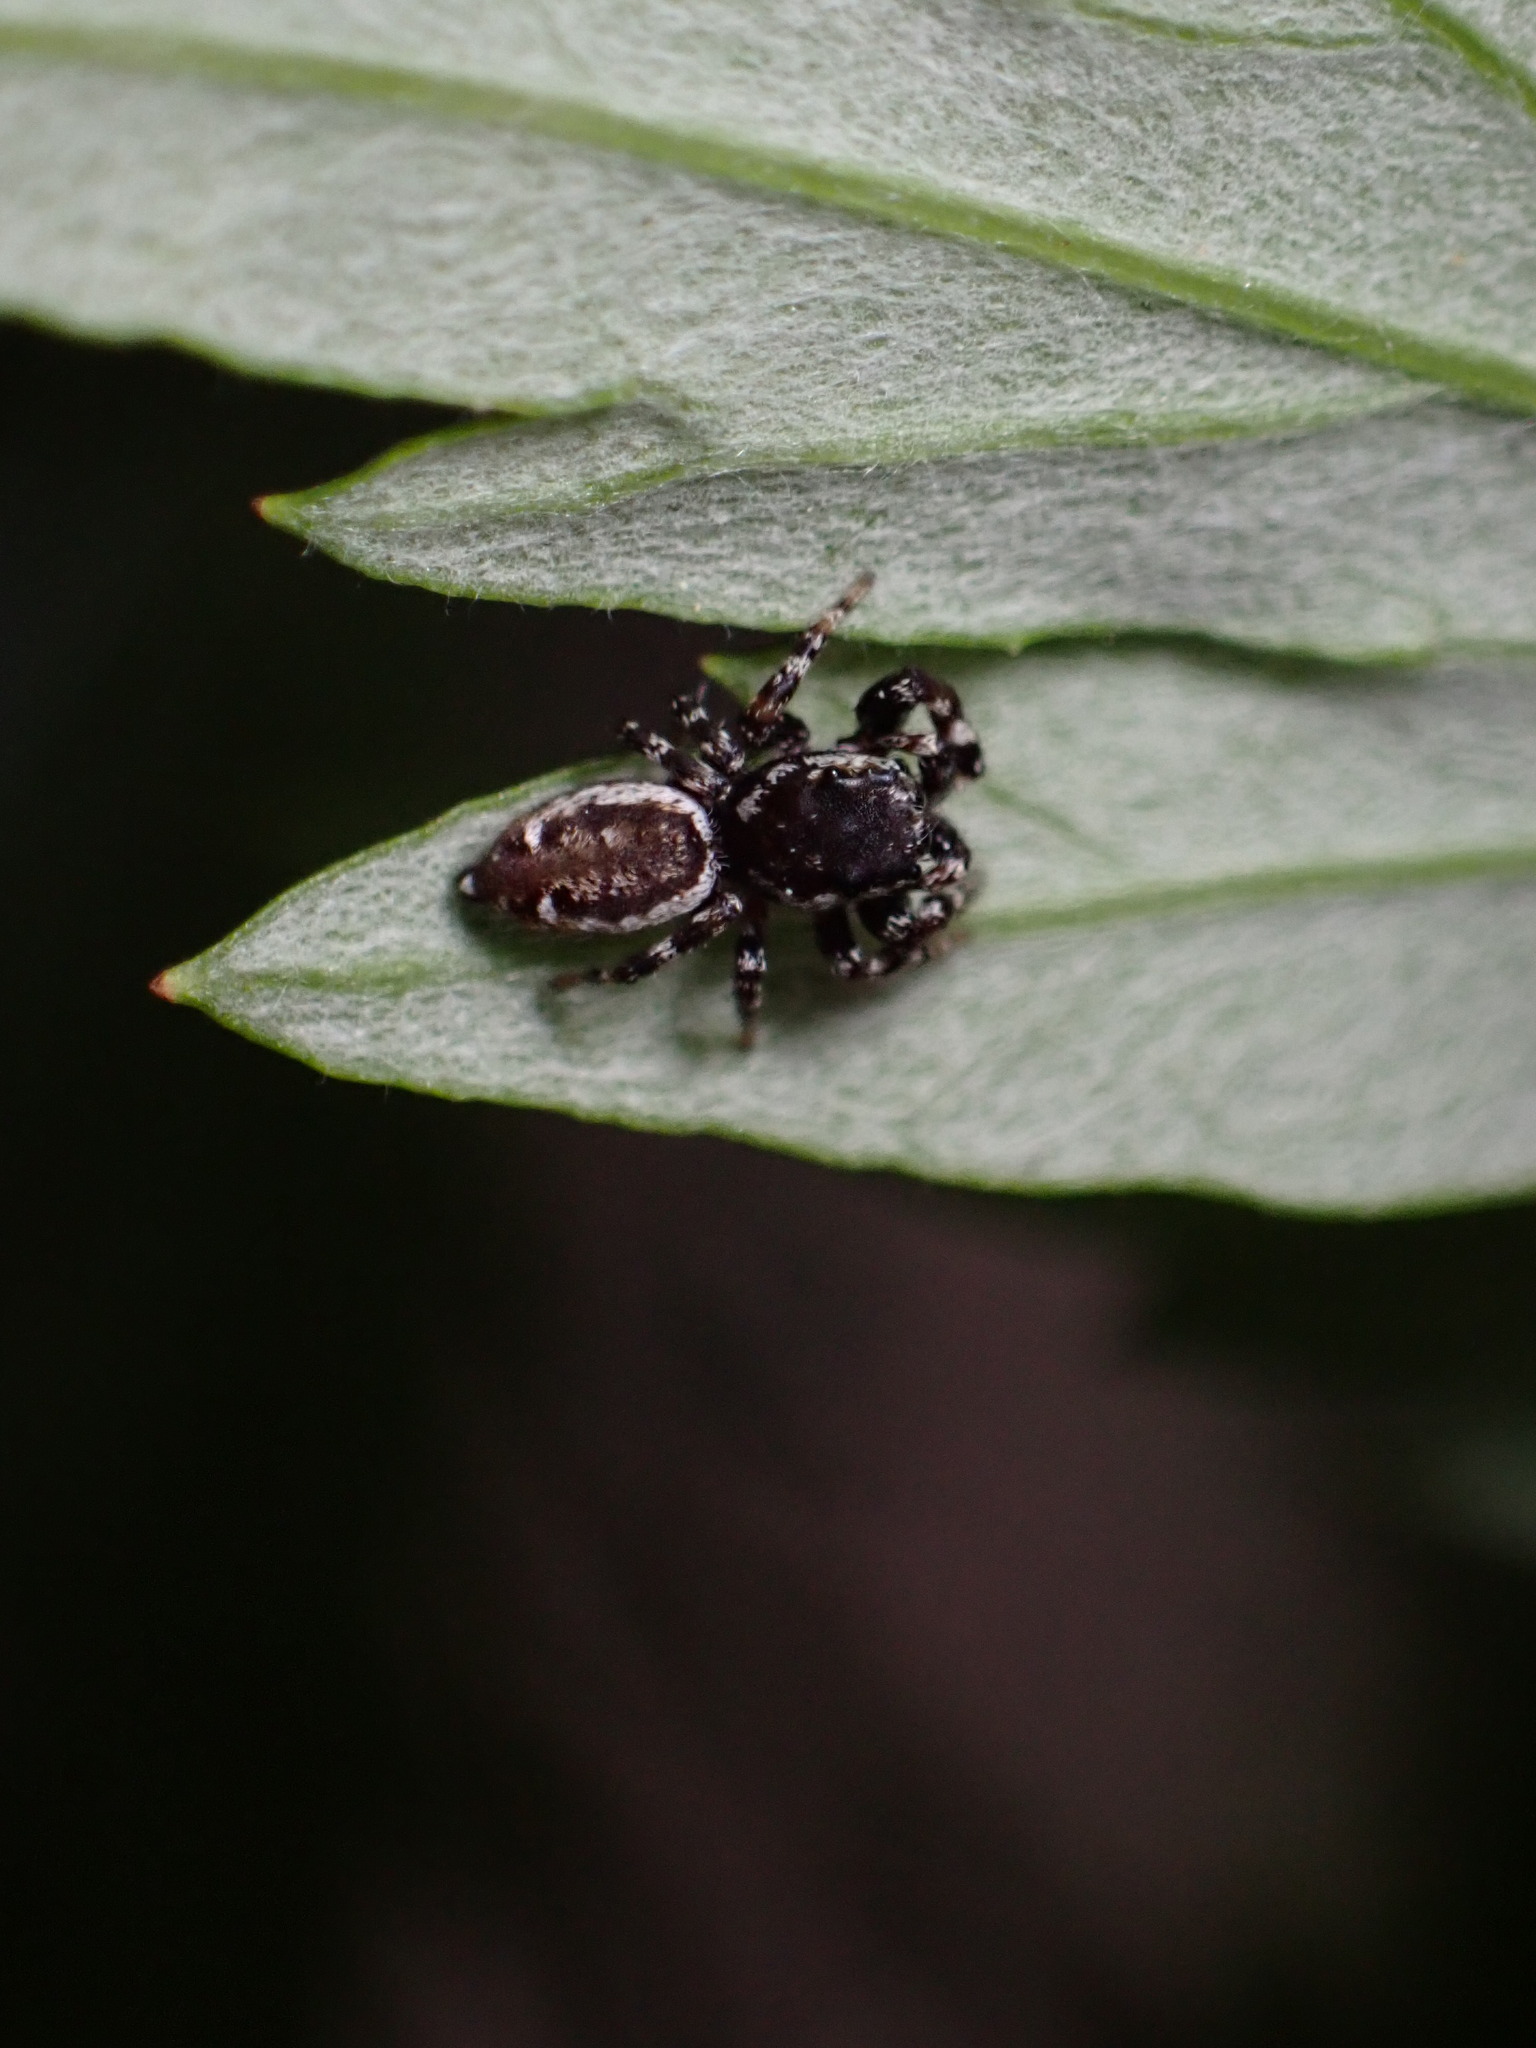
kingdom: Animalia
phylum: Arthropoda
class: Arachnida
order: Araneae
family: Salticidae
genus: Pelegrina
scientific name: Pelegrina galathea
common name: Jumping spiders
